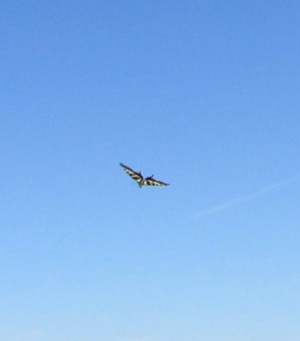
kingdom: Animalia
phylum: Arthropoda
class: Insecta
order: Lepidoptera
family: Papilionidae
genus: Papilio
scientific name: Papilio eurymedon
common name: Pale tiger swallowtail
